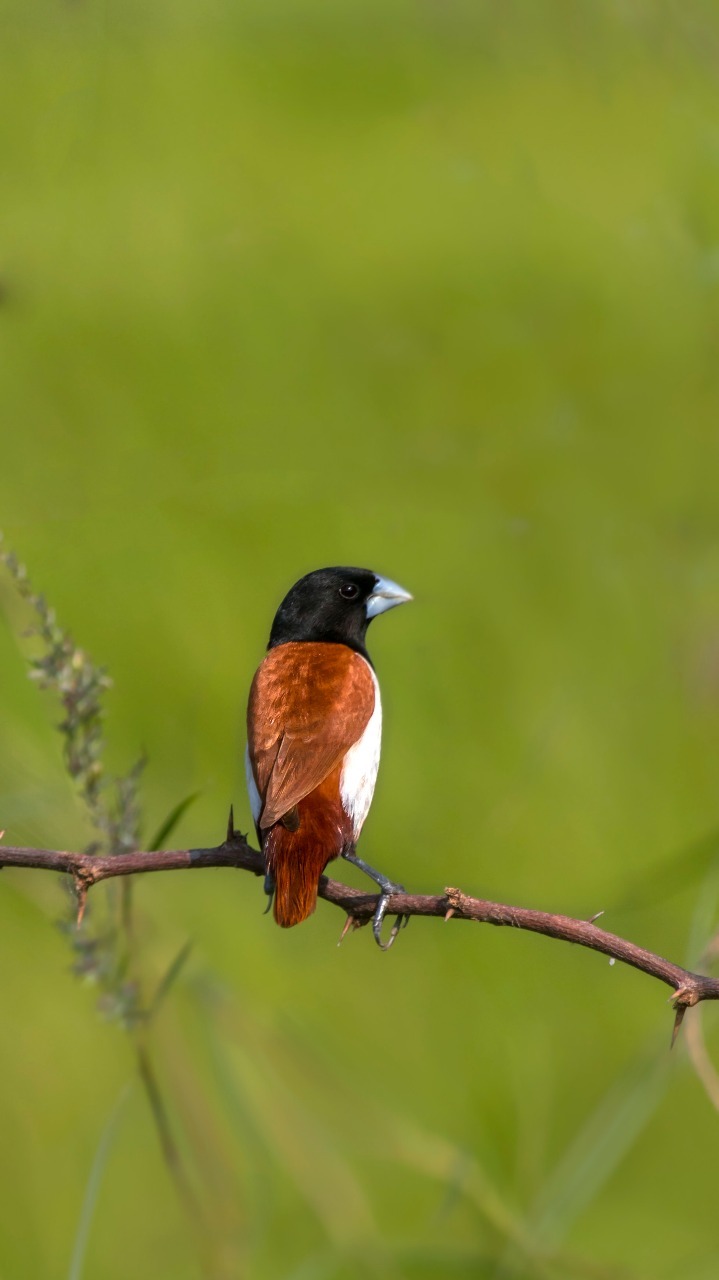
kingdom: Animalia
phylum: Chordata
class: Aves
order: Passeriformes
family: Estrildidae
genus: Lonchura
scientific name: Lonchura malacca
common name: Tricolored munia
